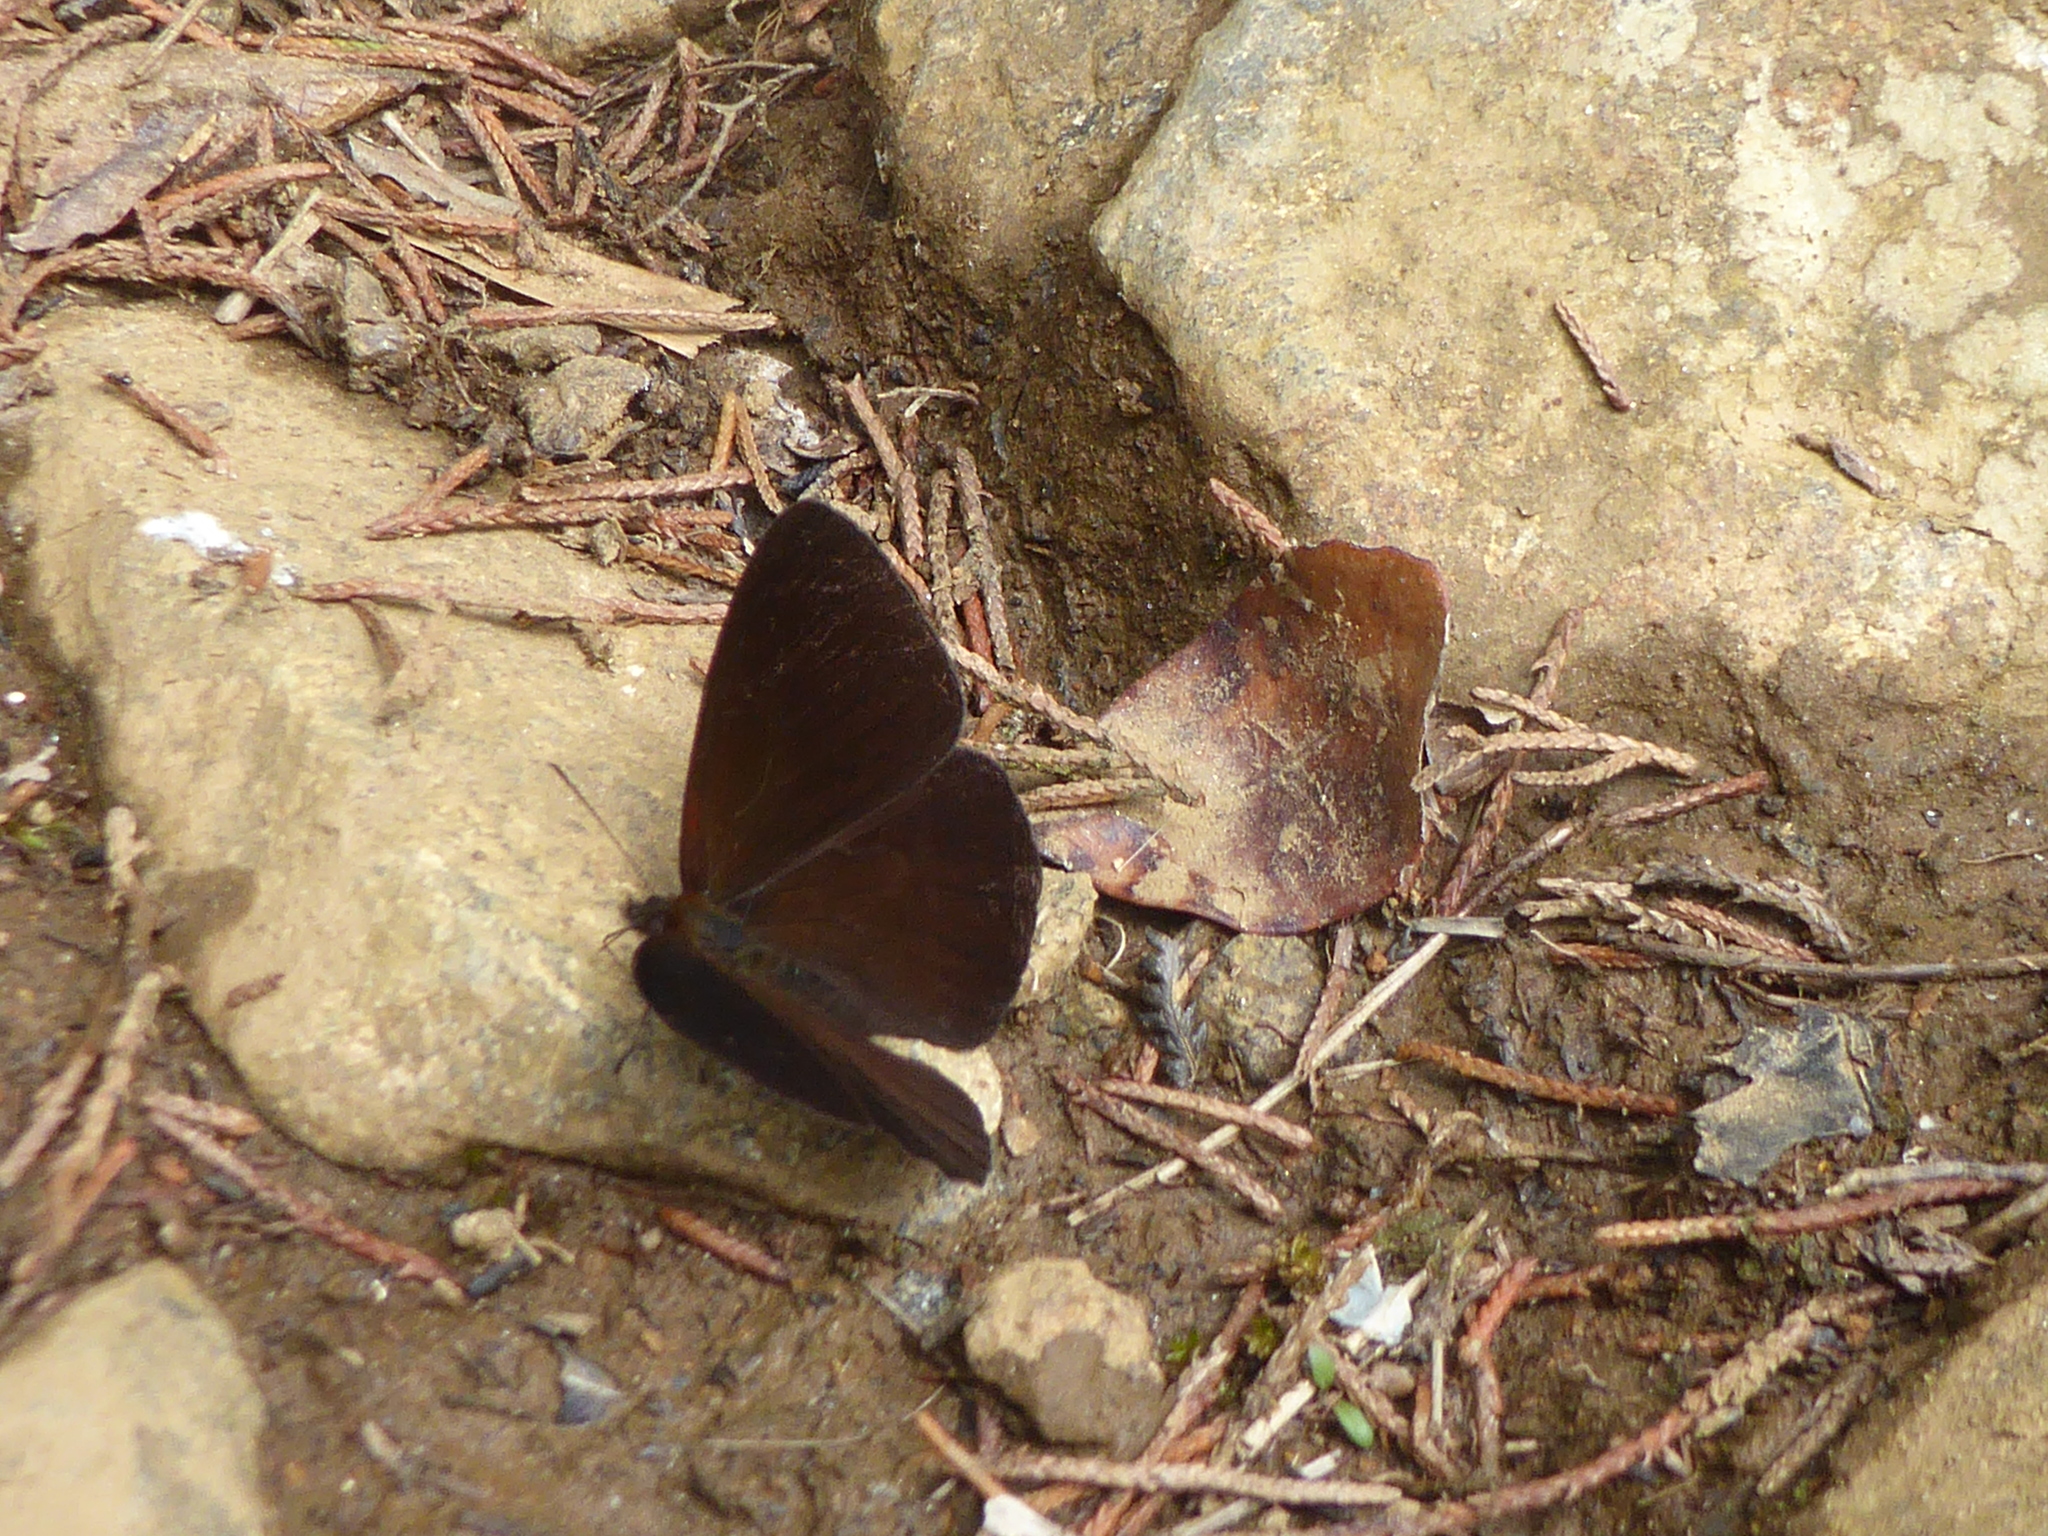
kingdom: Animalia
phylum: Arthropoda
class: Insecta
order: Lepidoptera
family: Nymphalidae
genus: Lymanopoda
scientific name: Lymanopoda albocincta
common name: White-banded mountain satyr
